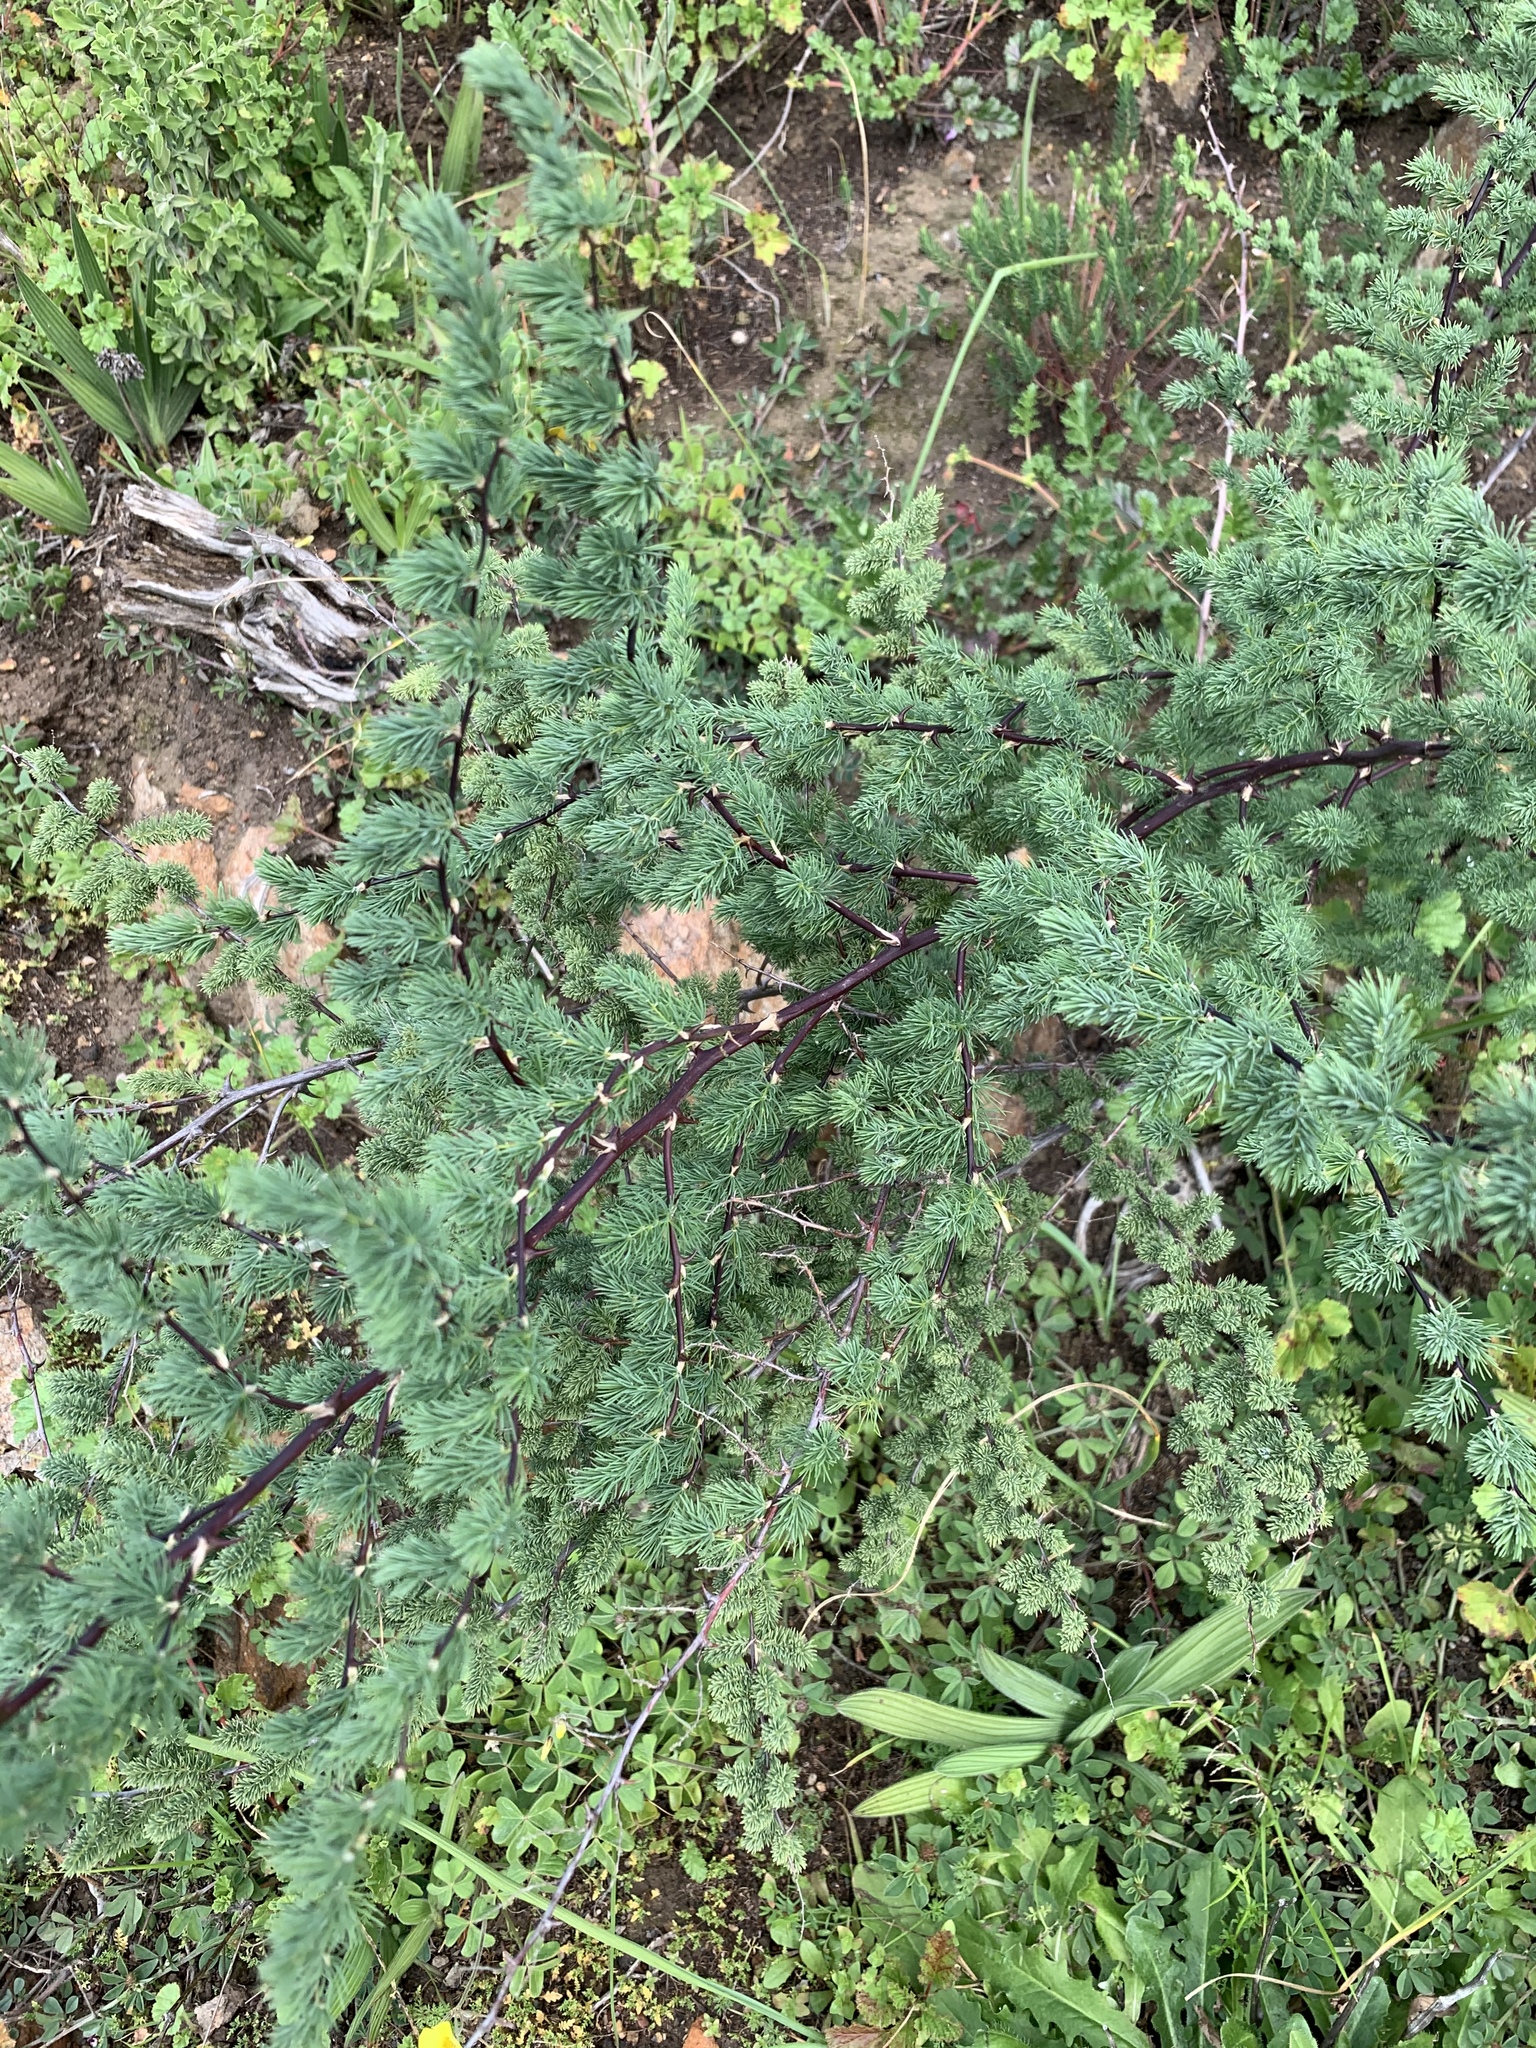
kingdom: Plantae
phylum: Tracheophyta
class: Liliopsida
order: Asparagales
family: Asparagaceae
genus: Asparagus
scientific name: Asparagus rubicundus
